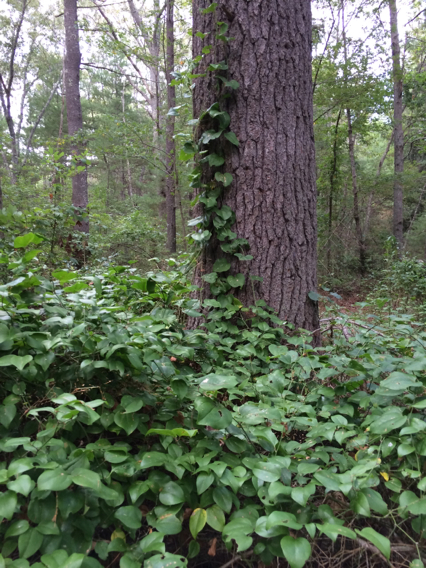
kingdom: Plantae
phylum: Tracheophyta
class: Liliopsida
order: Liliales
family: Smilacaceae
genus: Smilax
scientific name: Smilax rotundifolia
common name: Bullbriar
